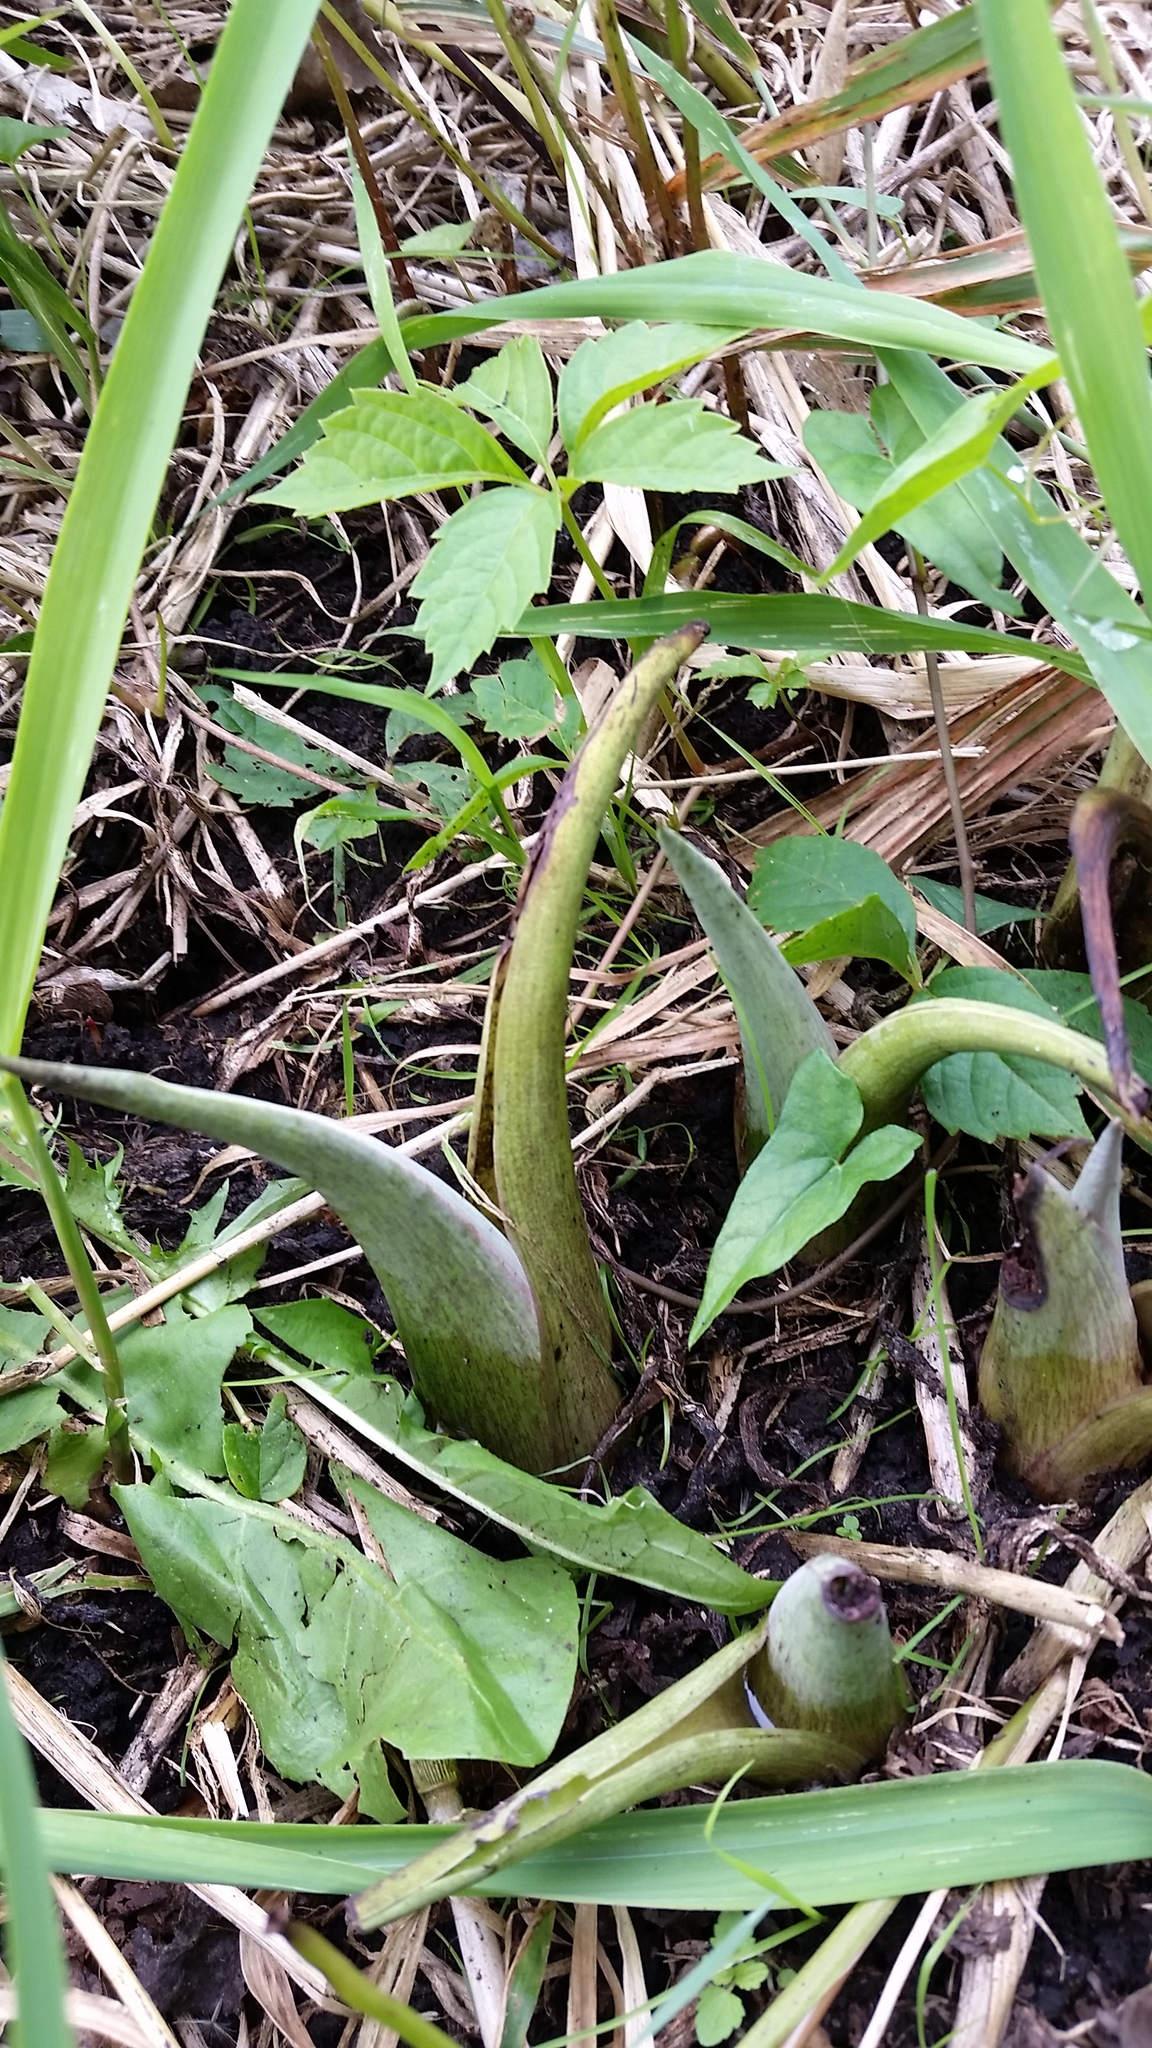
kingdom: Plantae
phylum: Tracheophyta
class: Liliopsida
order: Alismatales
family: Araceae
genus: Symplocarpus
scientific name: Symplocarpus foetidus
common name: Eastern skunk cabbage
